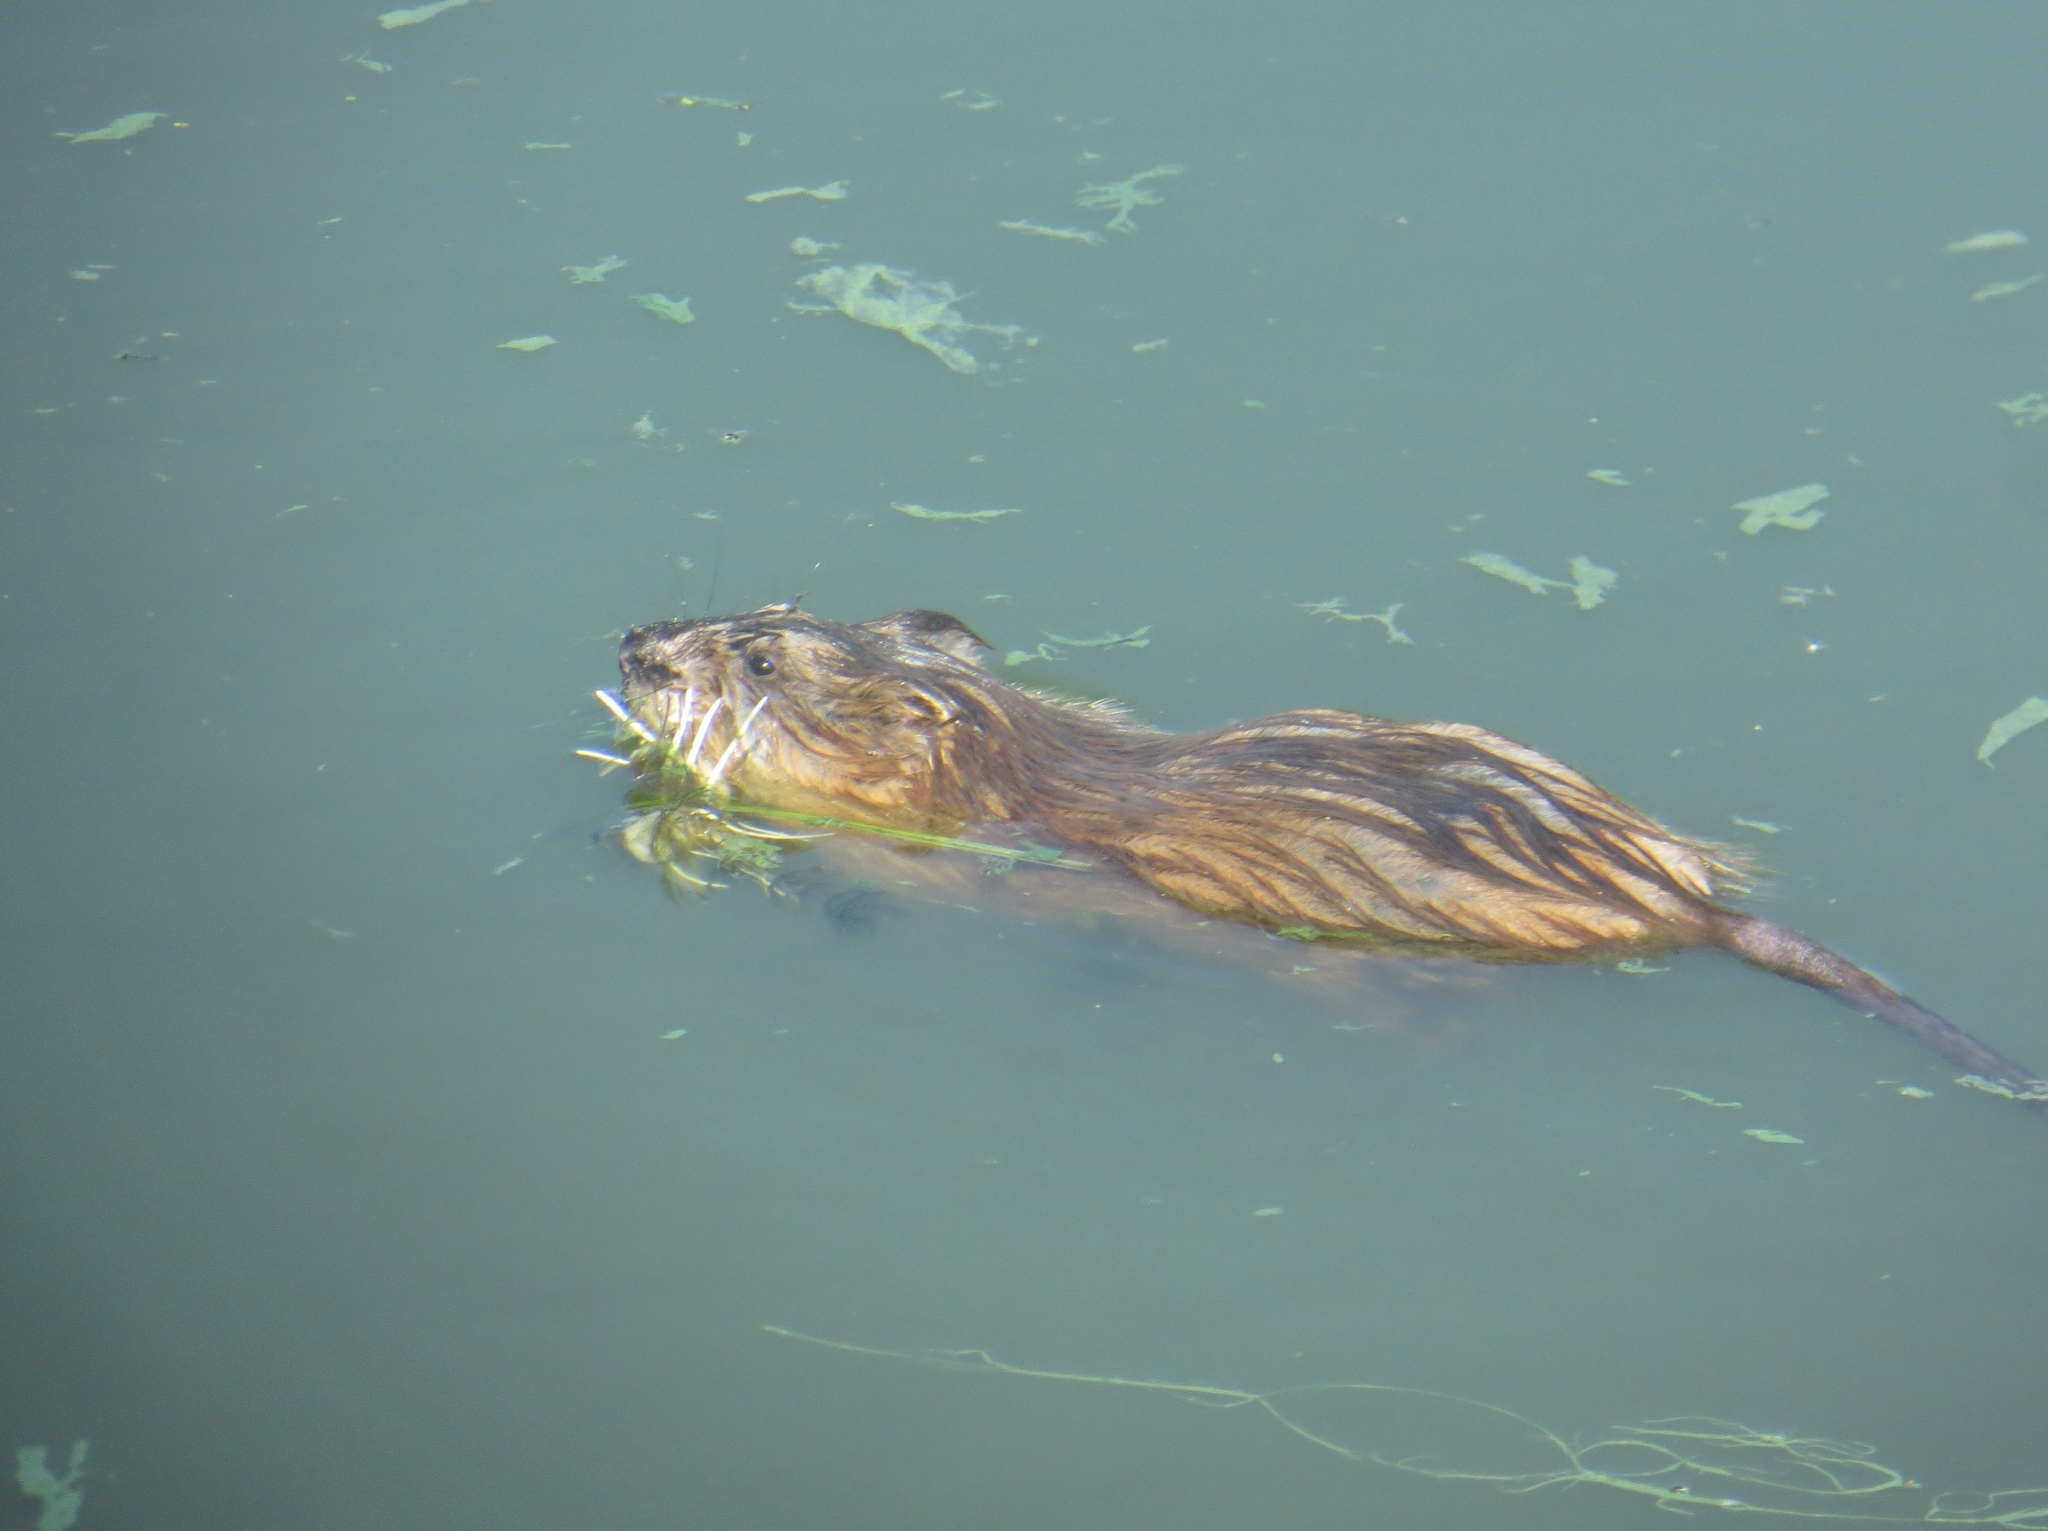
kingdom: Animalia
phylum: Chordata
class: Mammalia
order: Rodentia
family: Cricetidae
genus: Ondatra
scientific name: Ondatra zibethicus
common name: Muskrat
